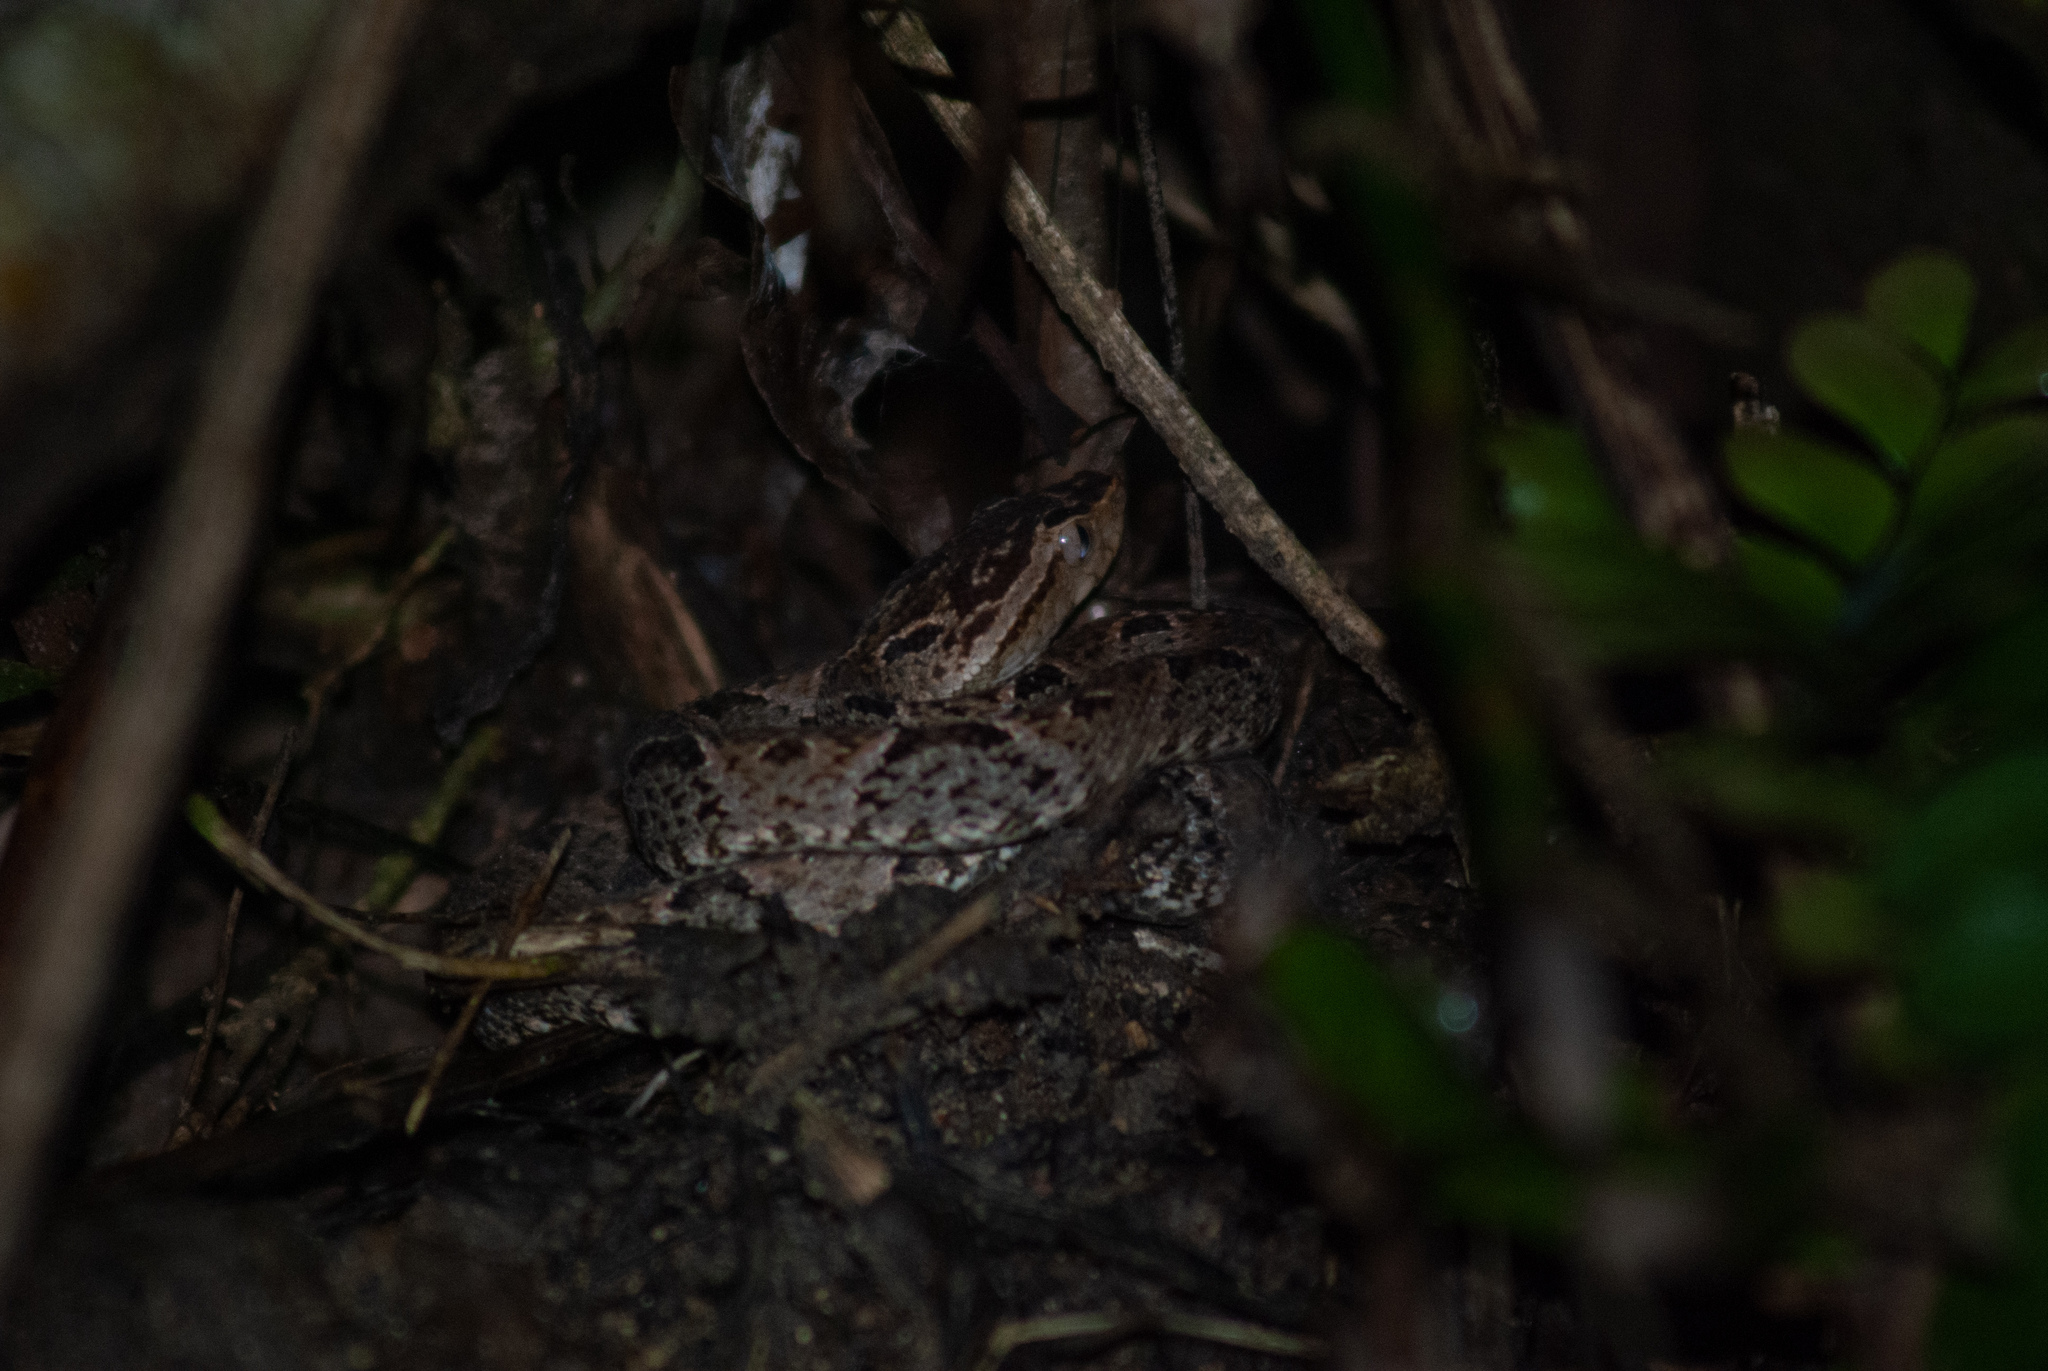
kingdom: Animalia
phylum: Chordata
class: Squamata
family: Viperidae
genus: Bothrops
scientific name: Bothrops asper
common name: Terciopelo
